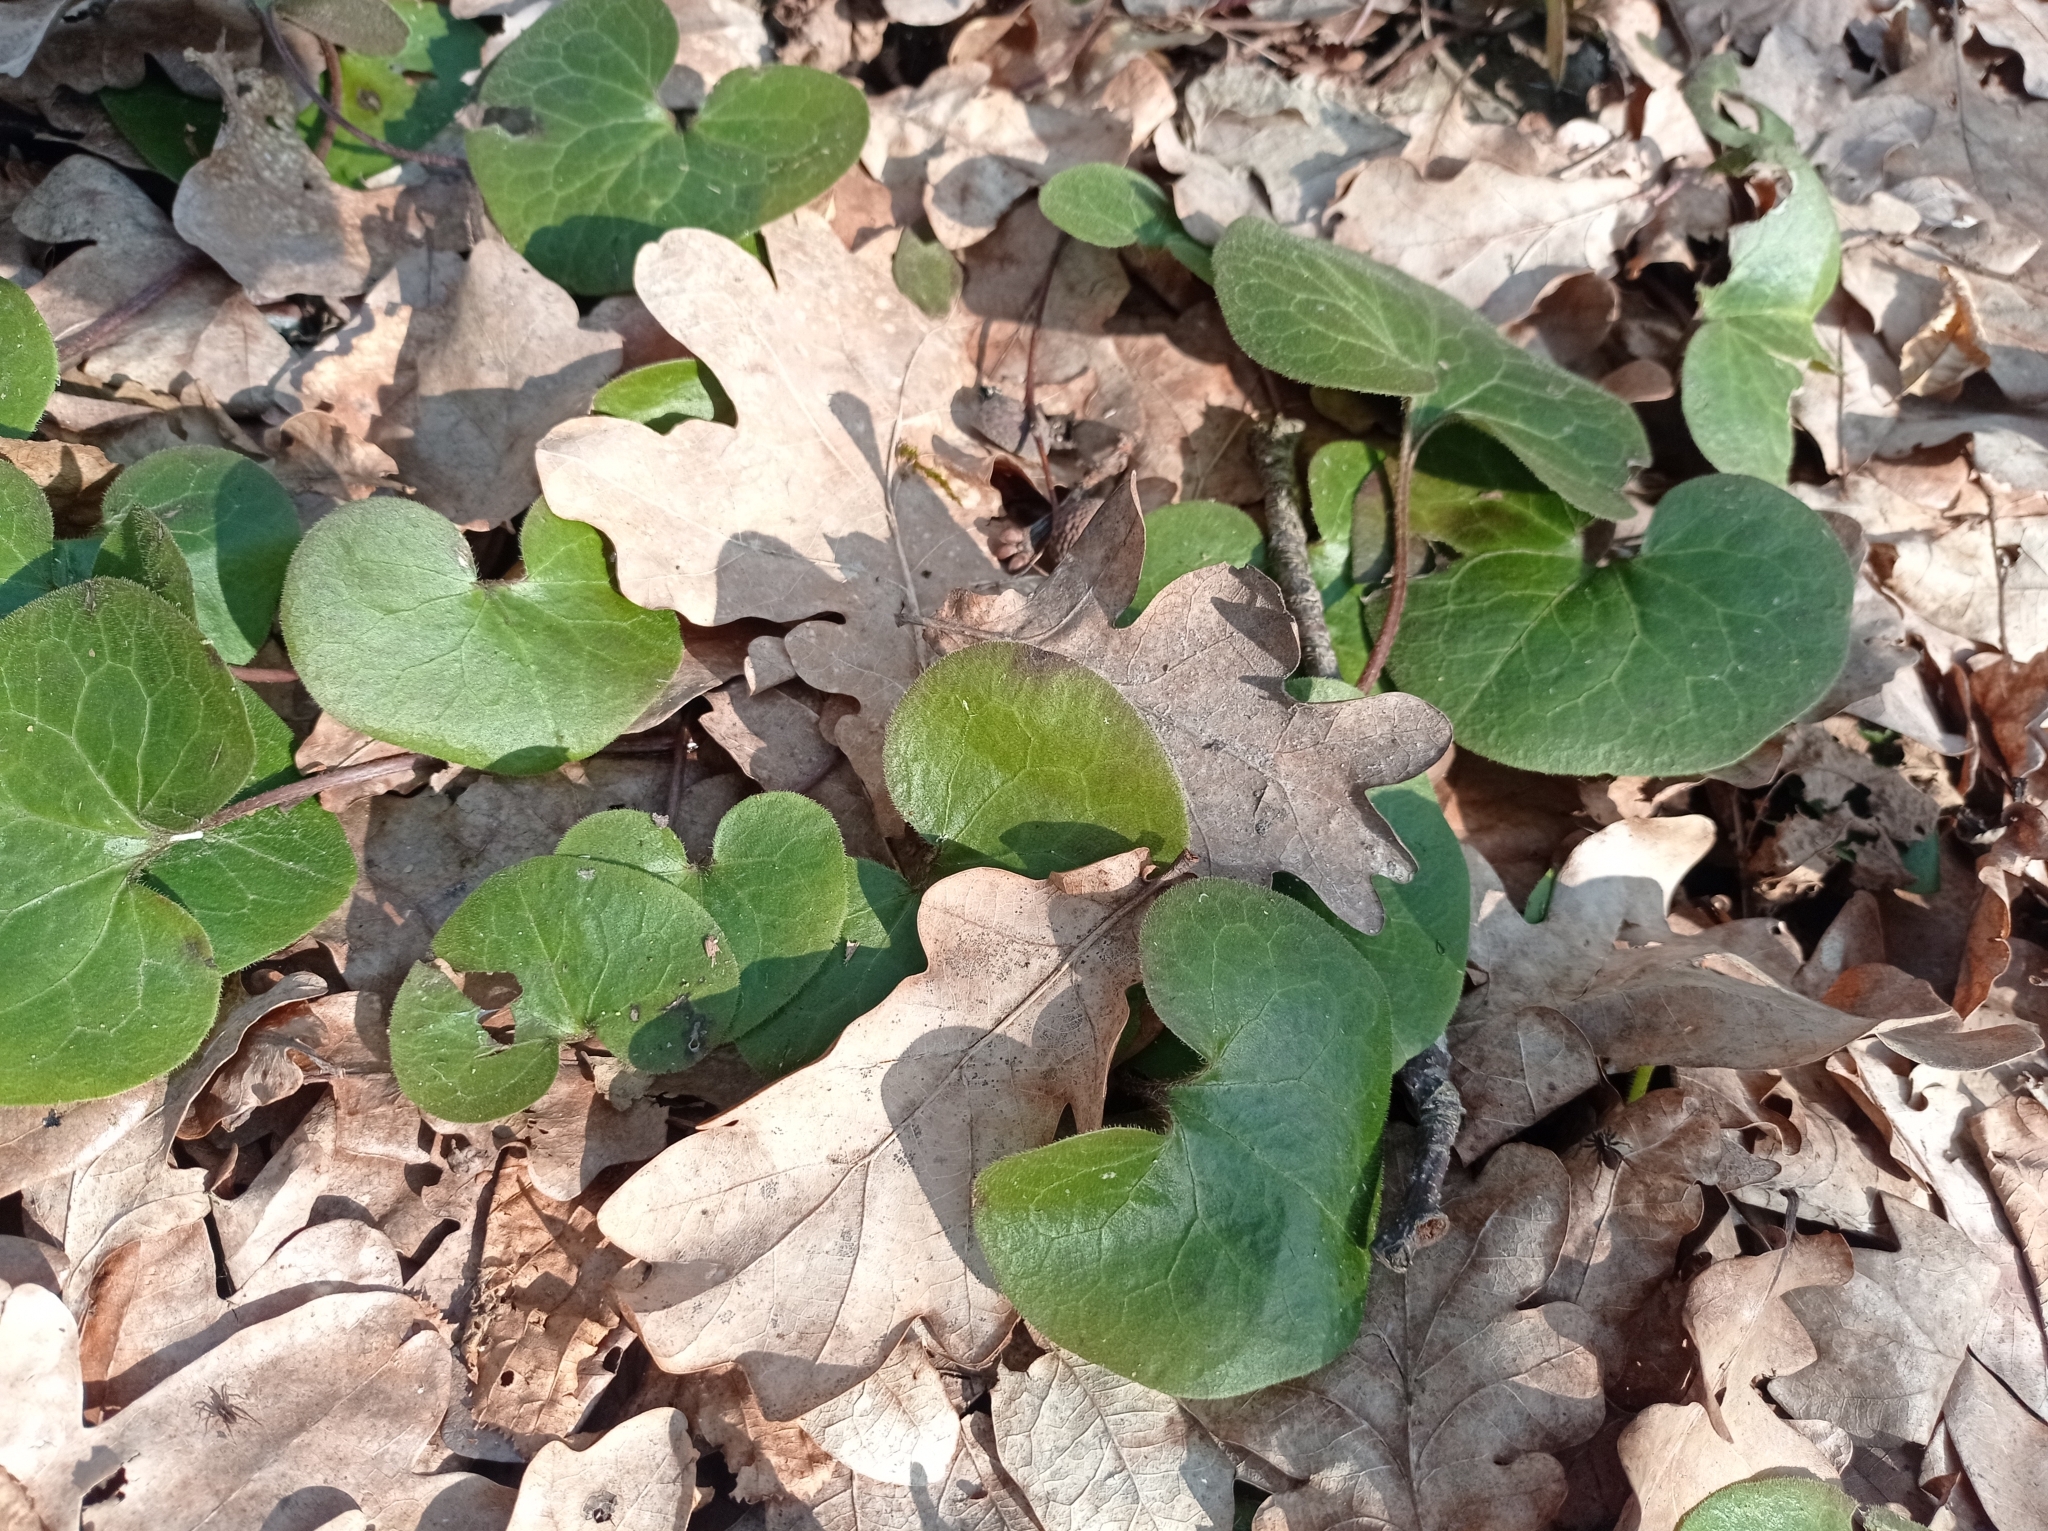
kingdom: Plantae
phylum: Tracheophyta
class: Magnoliopsida
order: Piperales
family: Aristolochiaceae
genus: Asarum
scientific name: Asarum europaeum
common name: Asarabacca
